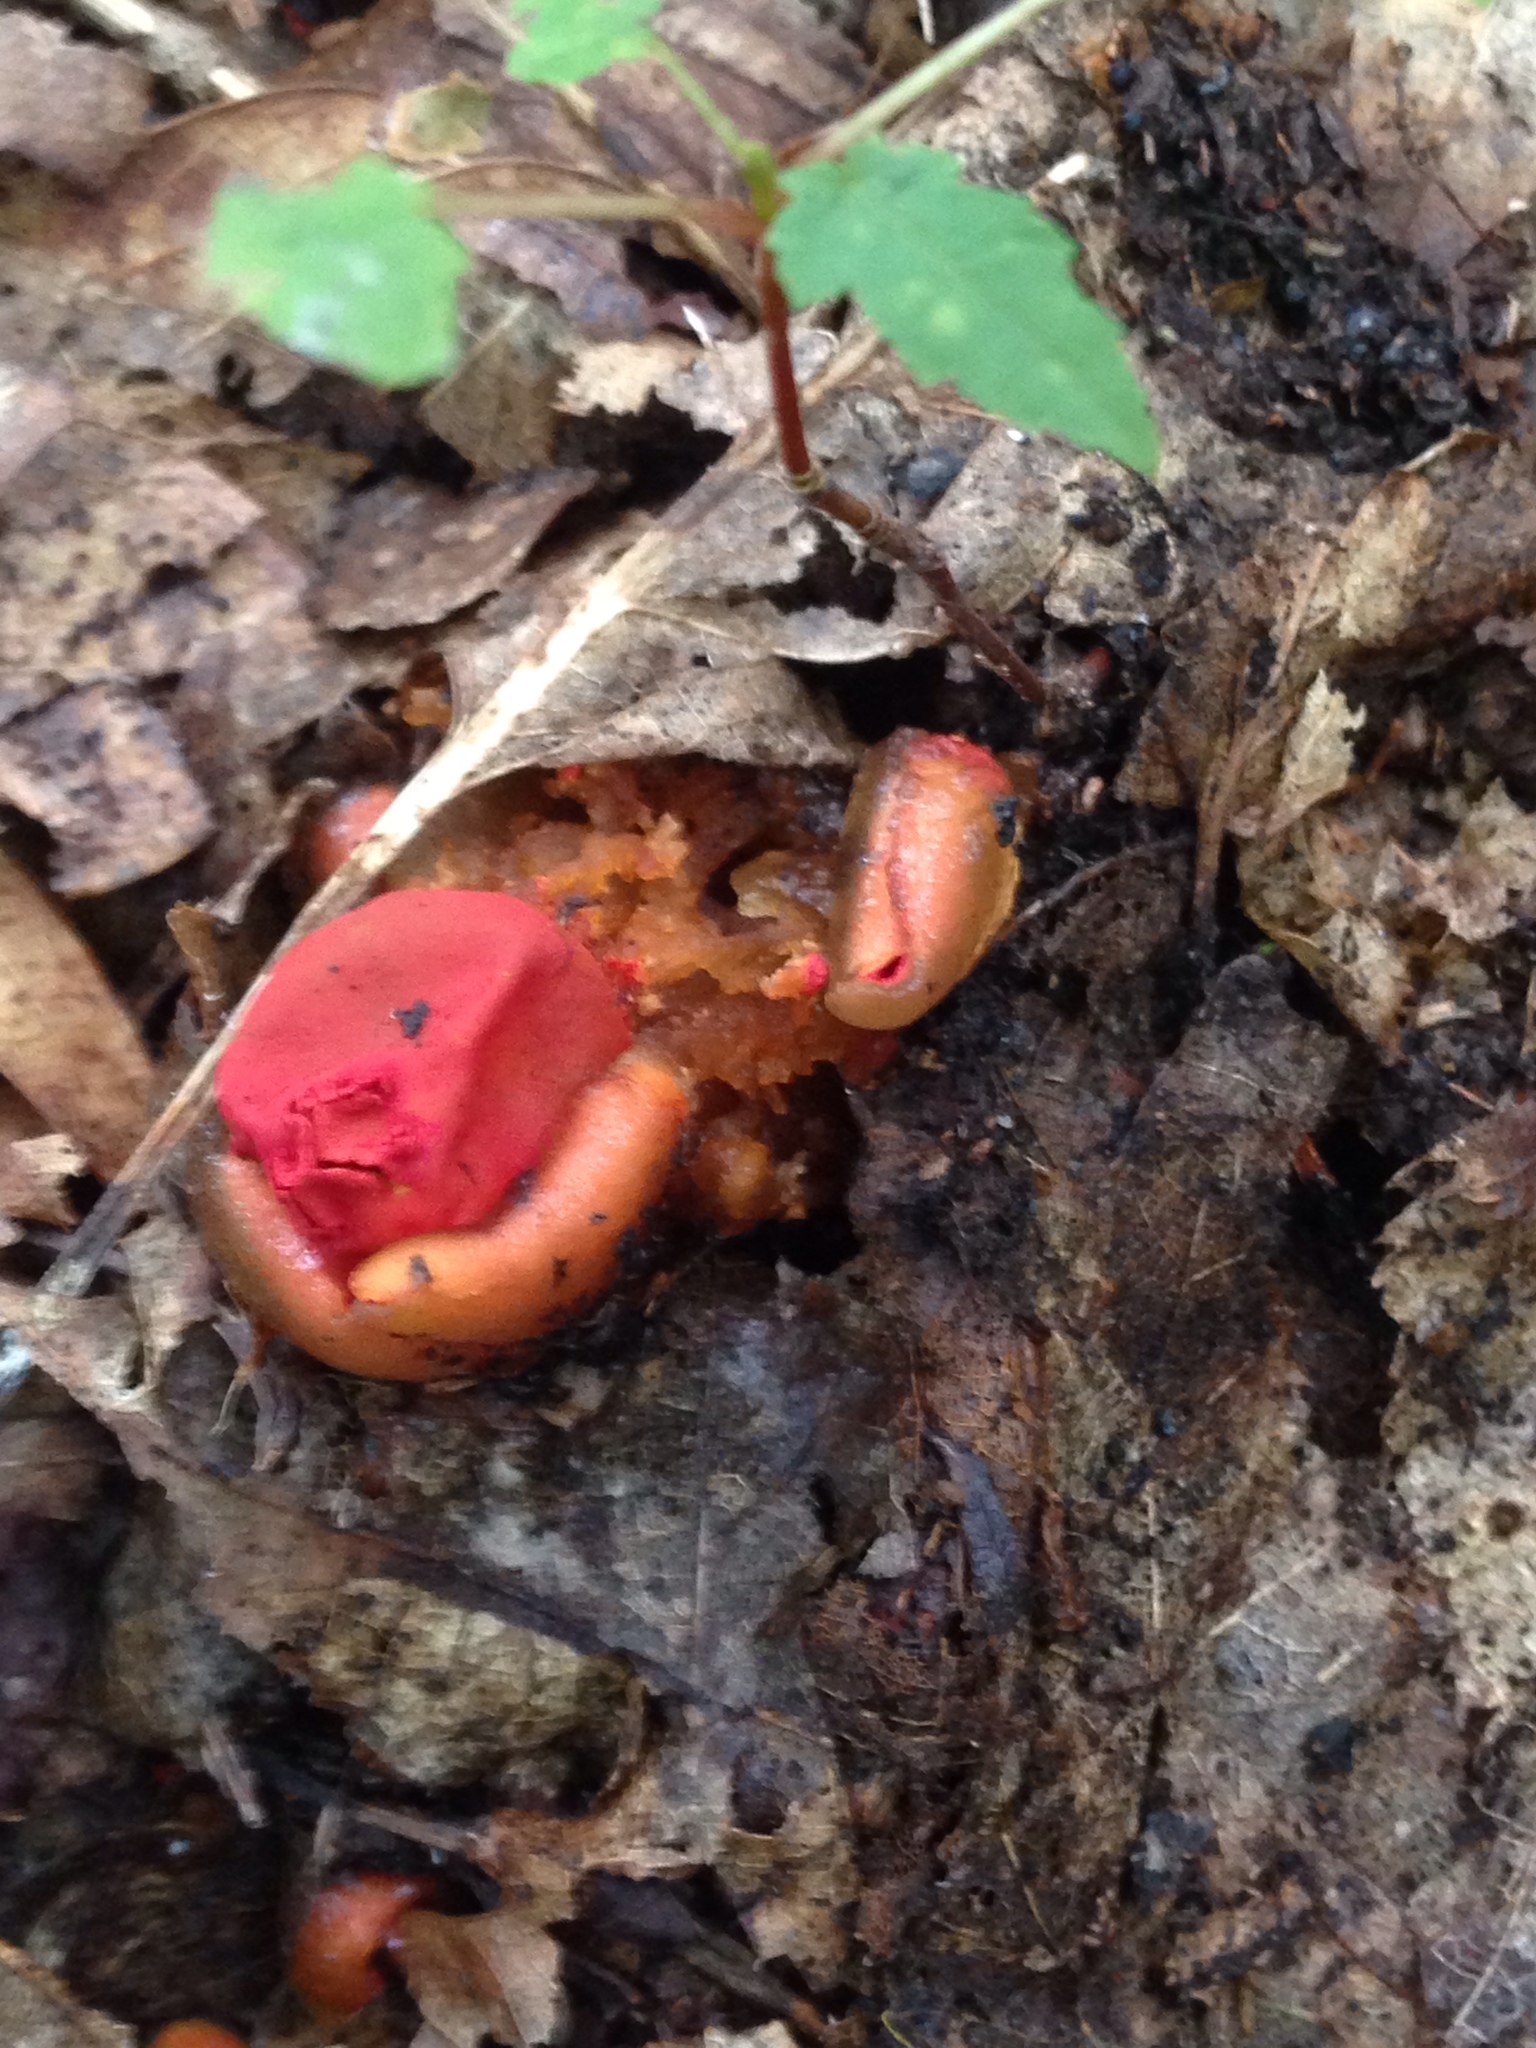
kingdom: Fungi
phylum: Basidiomycota
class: Agaricomycetes
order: Boletales
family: Calostomataceae
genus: Calostoma
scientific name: Calostoma cinnabarinum
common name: Stalked puffball-in-aspic
